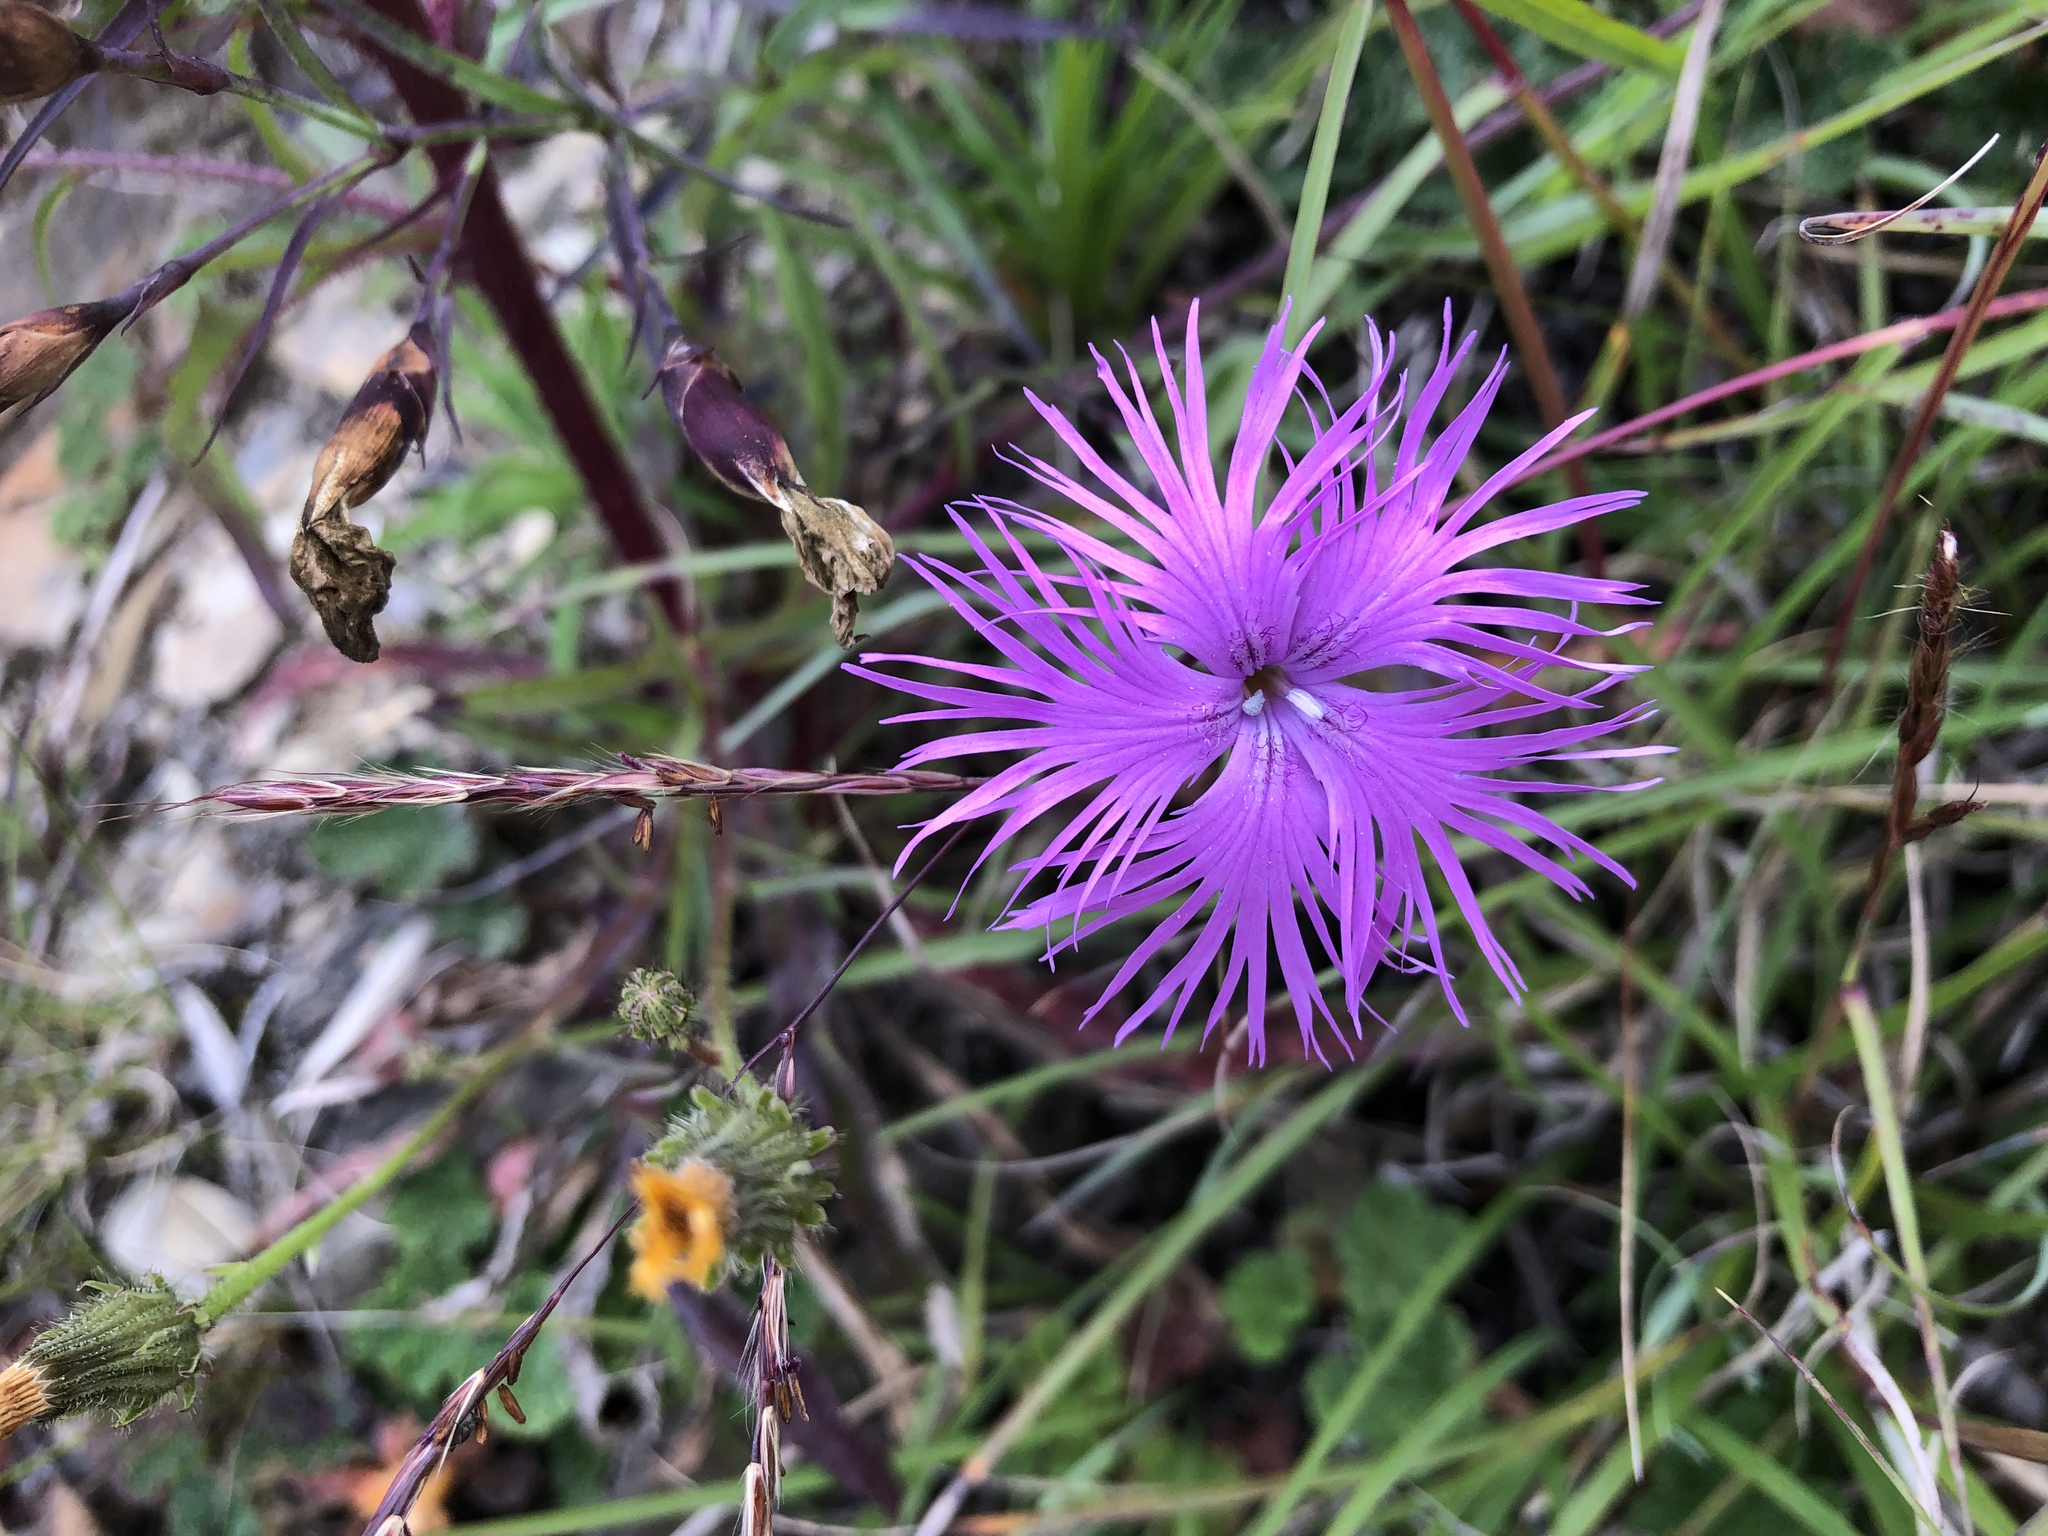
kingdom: Plantae
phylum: Tracheophyta
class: Magnoliopsida
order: Caryophyllales
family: Caryophyllaceae
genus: Dianthus
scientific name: Dianthus pygmaeus
